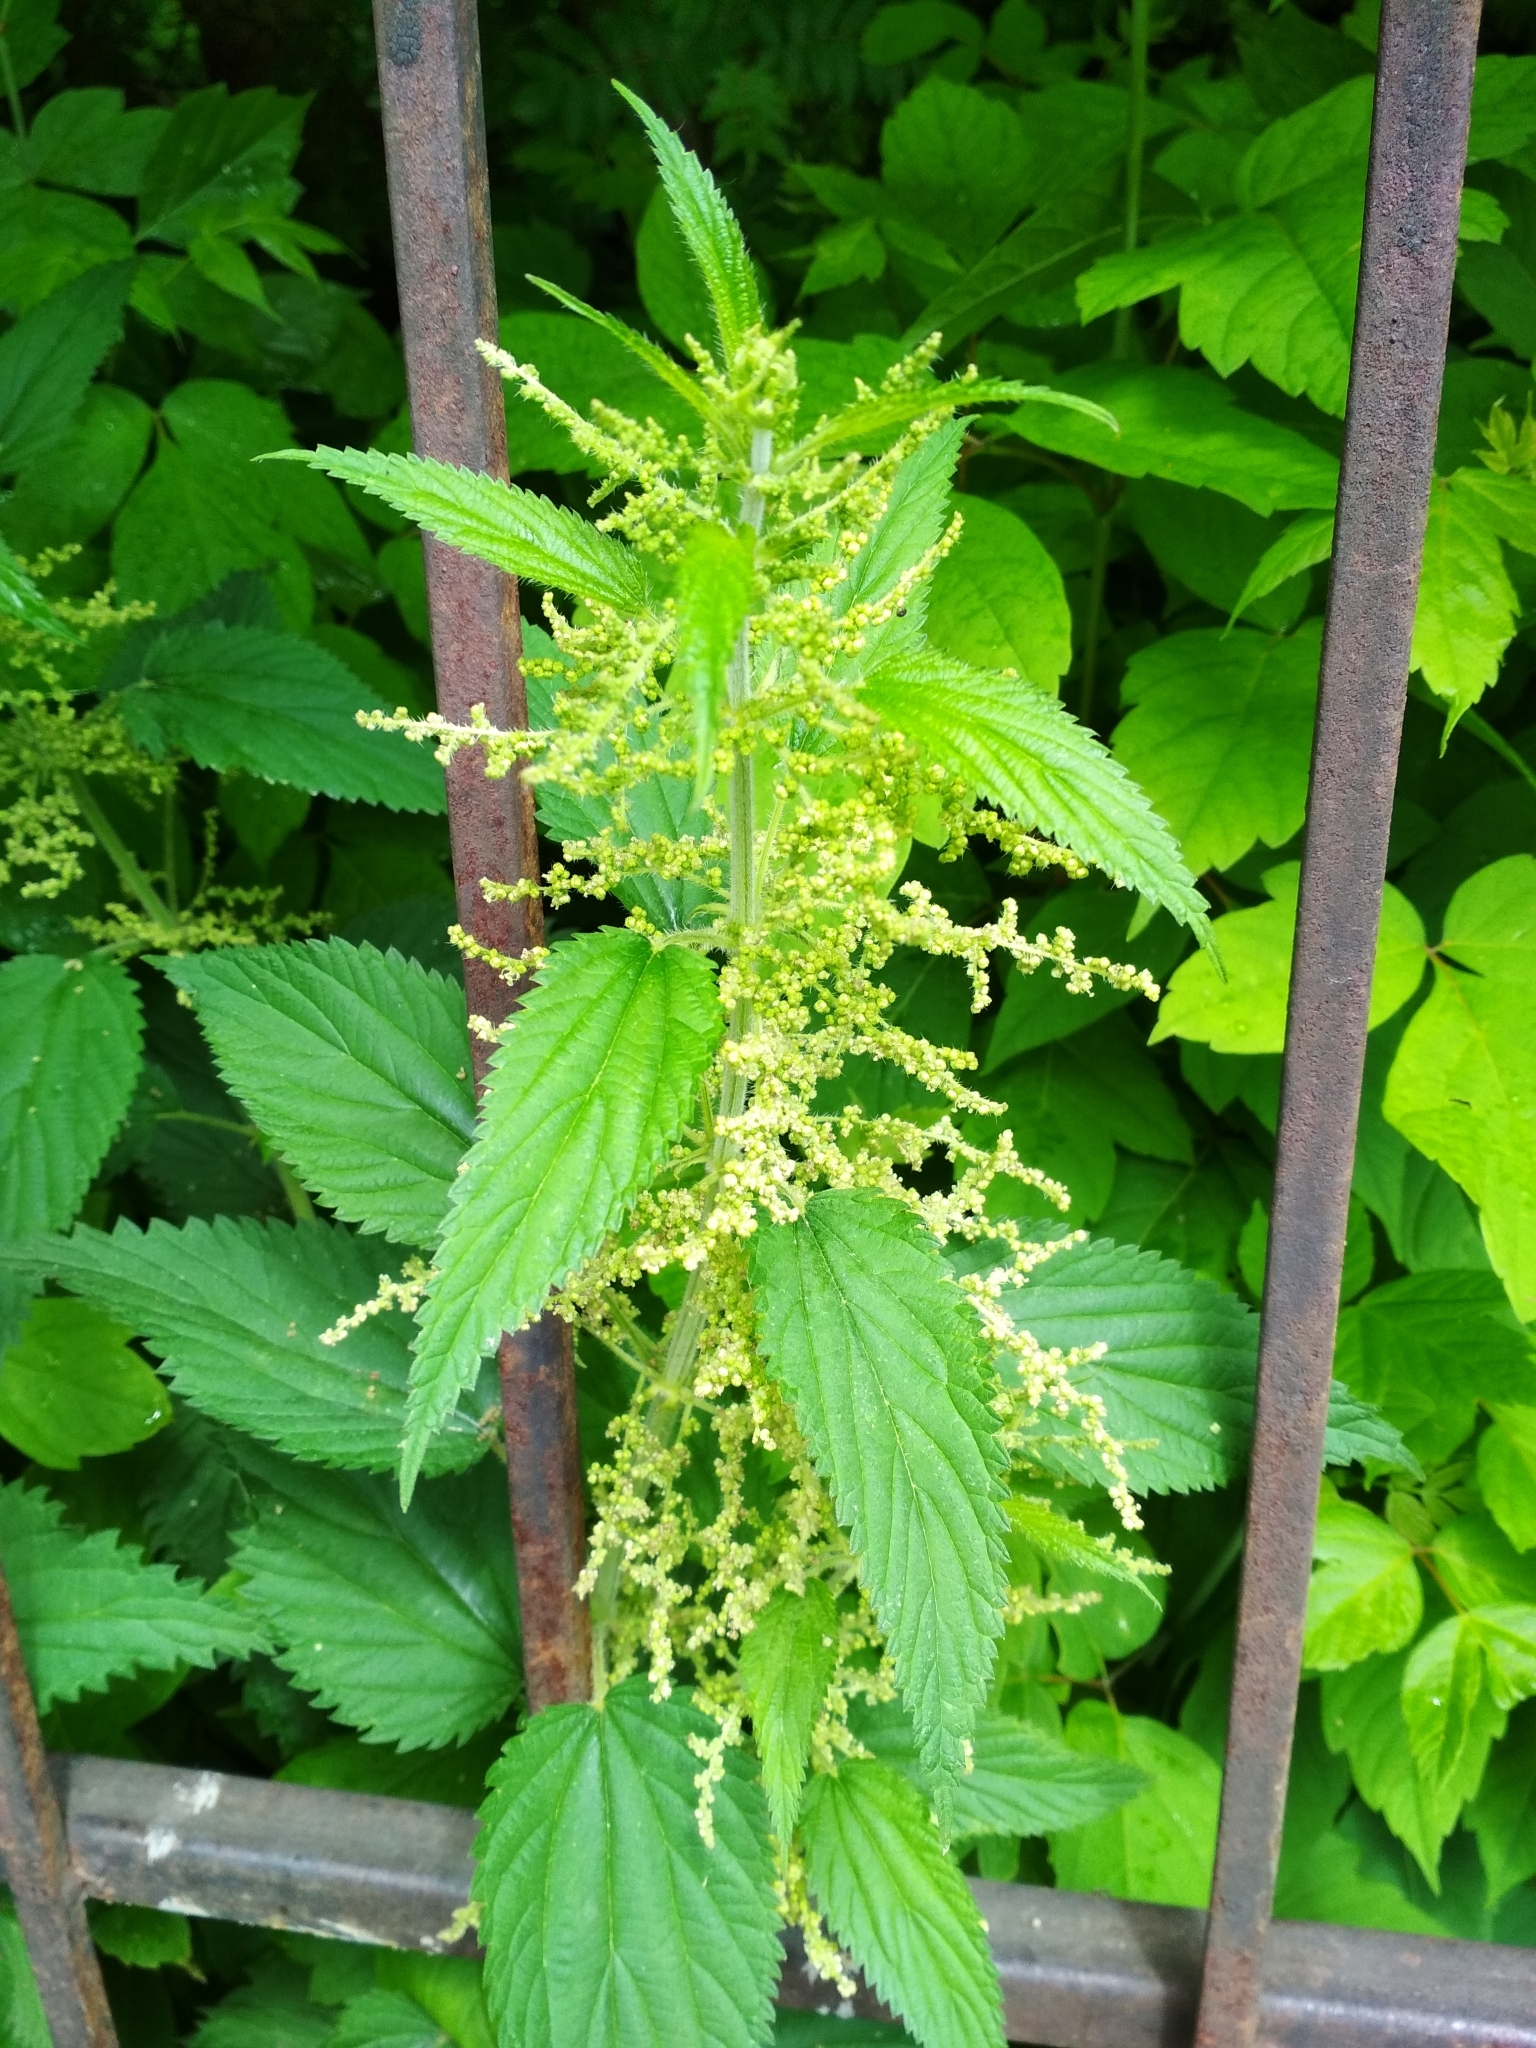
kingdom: Plantae
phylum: Tracheophyta
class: Magnoliopsida
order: Rosales
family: Urticaceae
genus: Urtica
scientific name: Urtica dioica
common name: Common nettle
